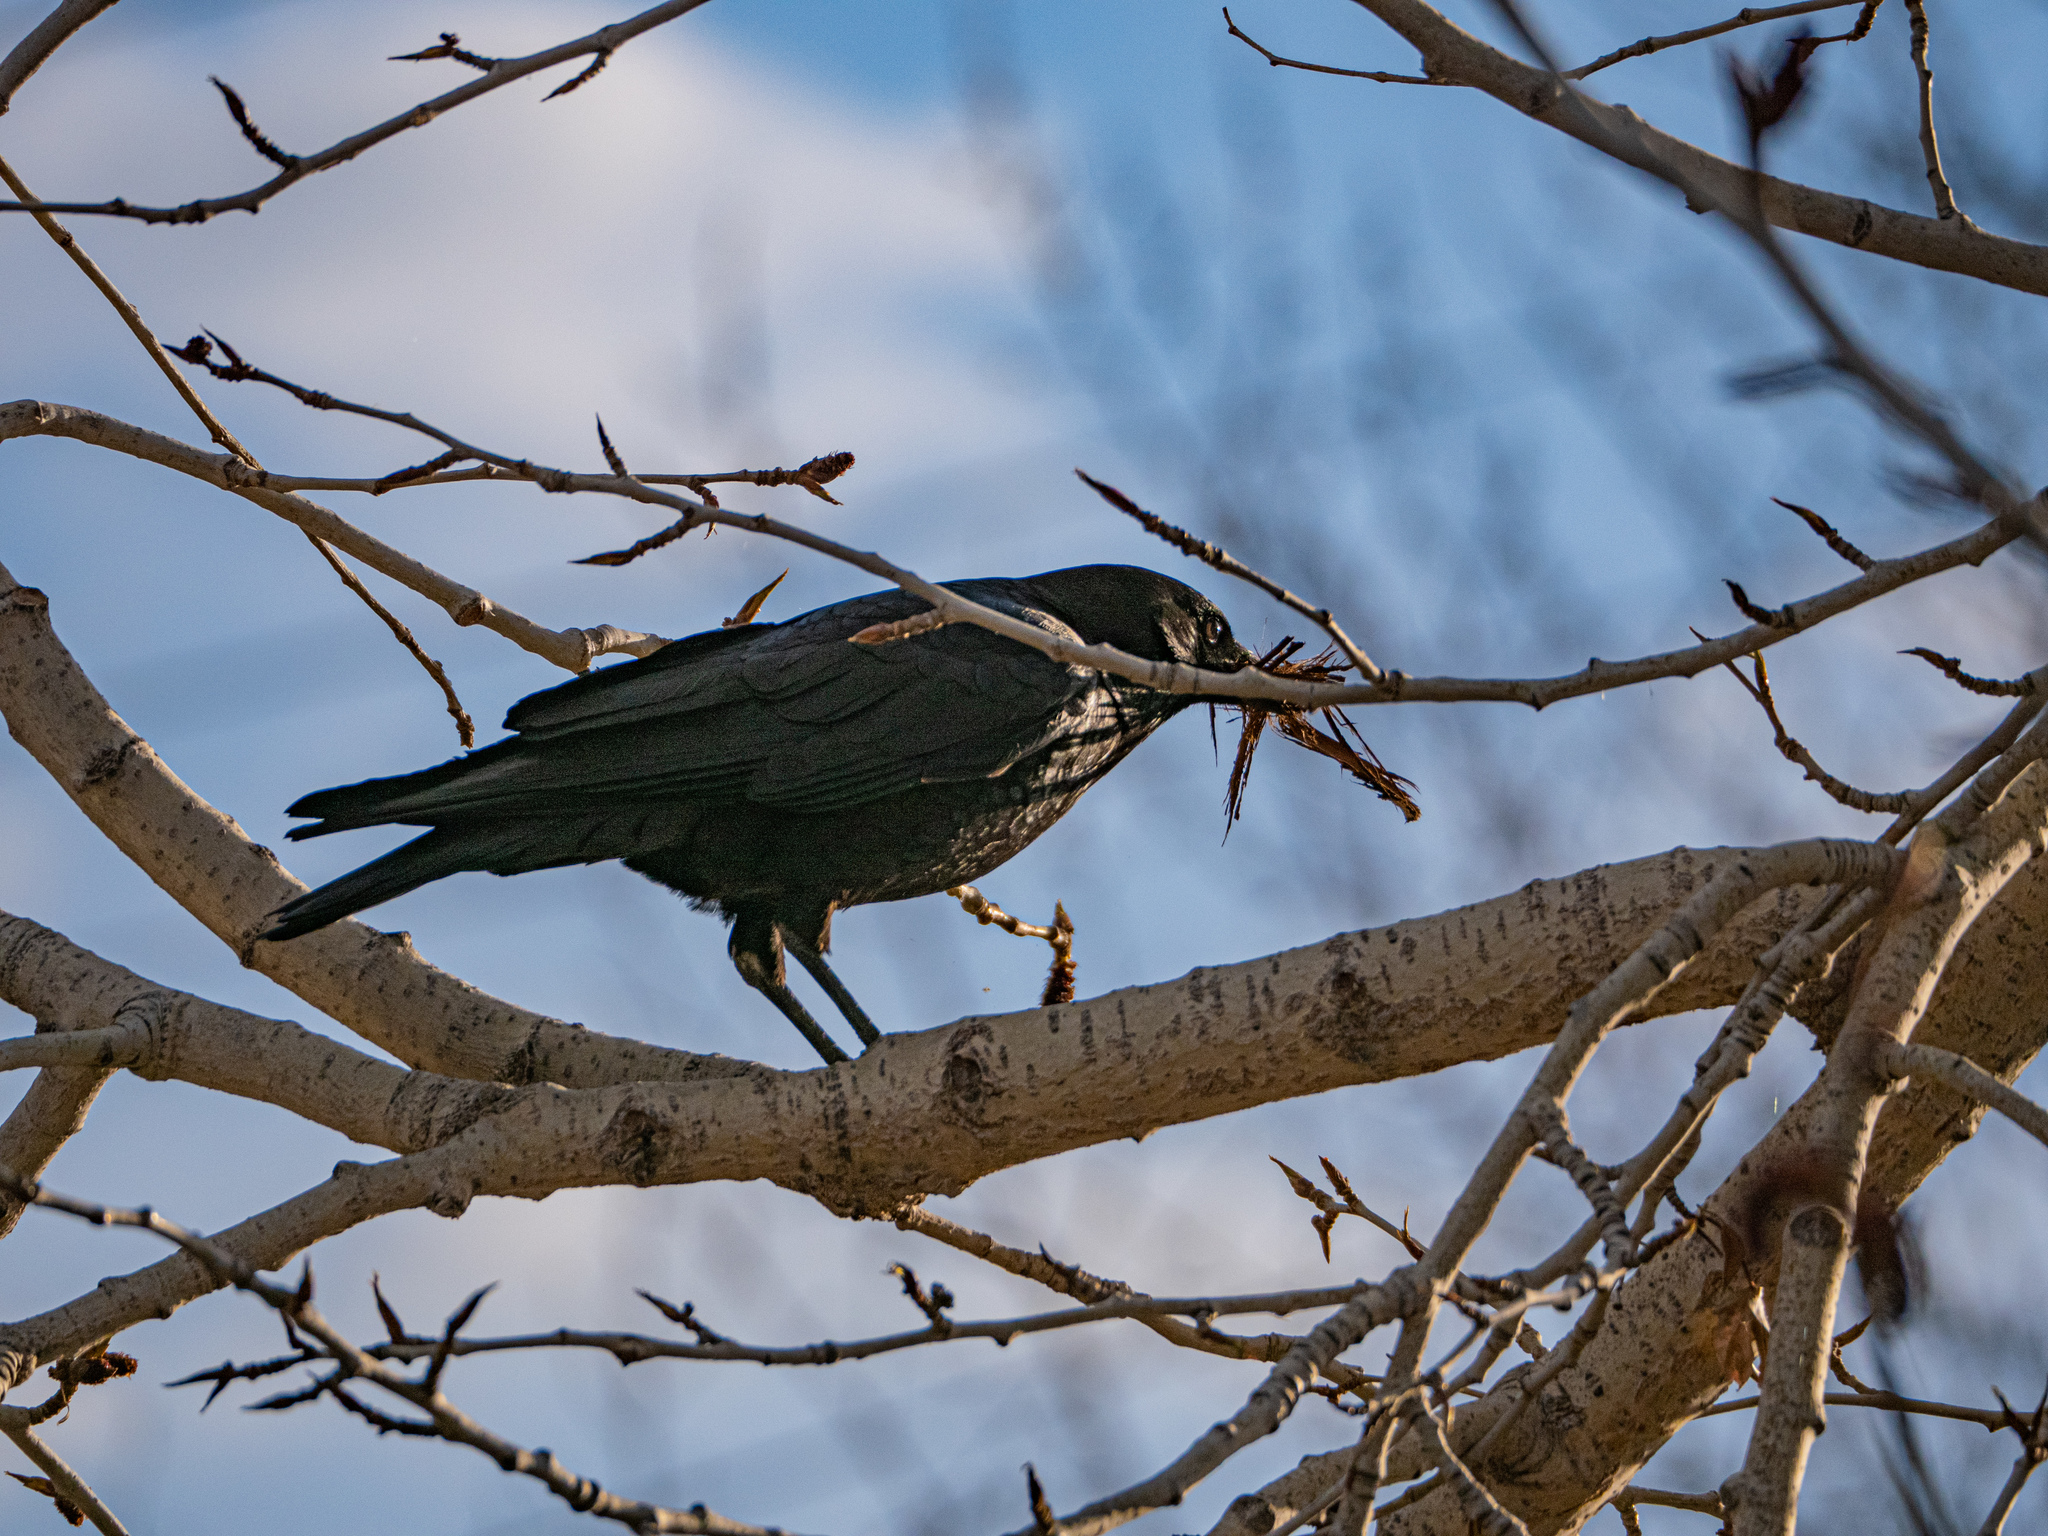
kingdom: Animalia
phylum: Chordata
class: Aves
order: Passeriformes
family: Corvidae
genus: Corvus
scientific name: Corvus brachyrhynchos
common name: American crow
